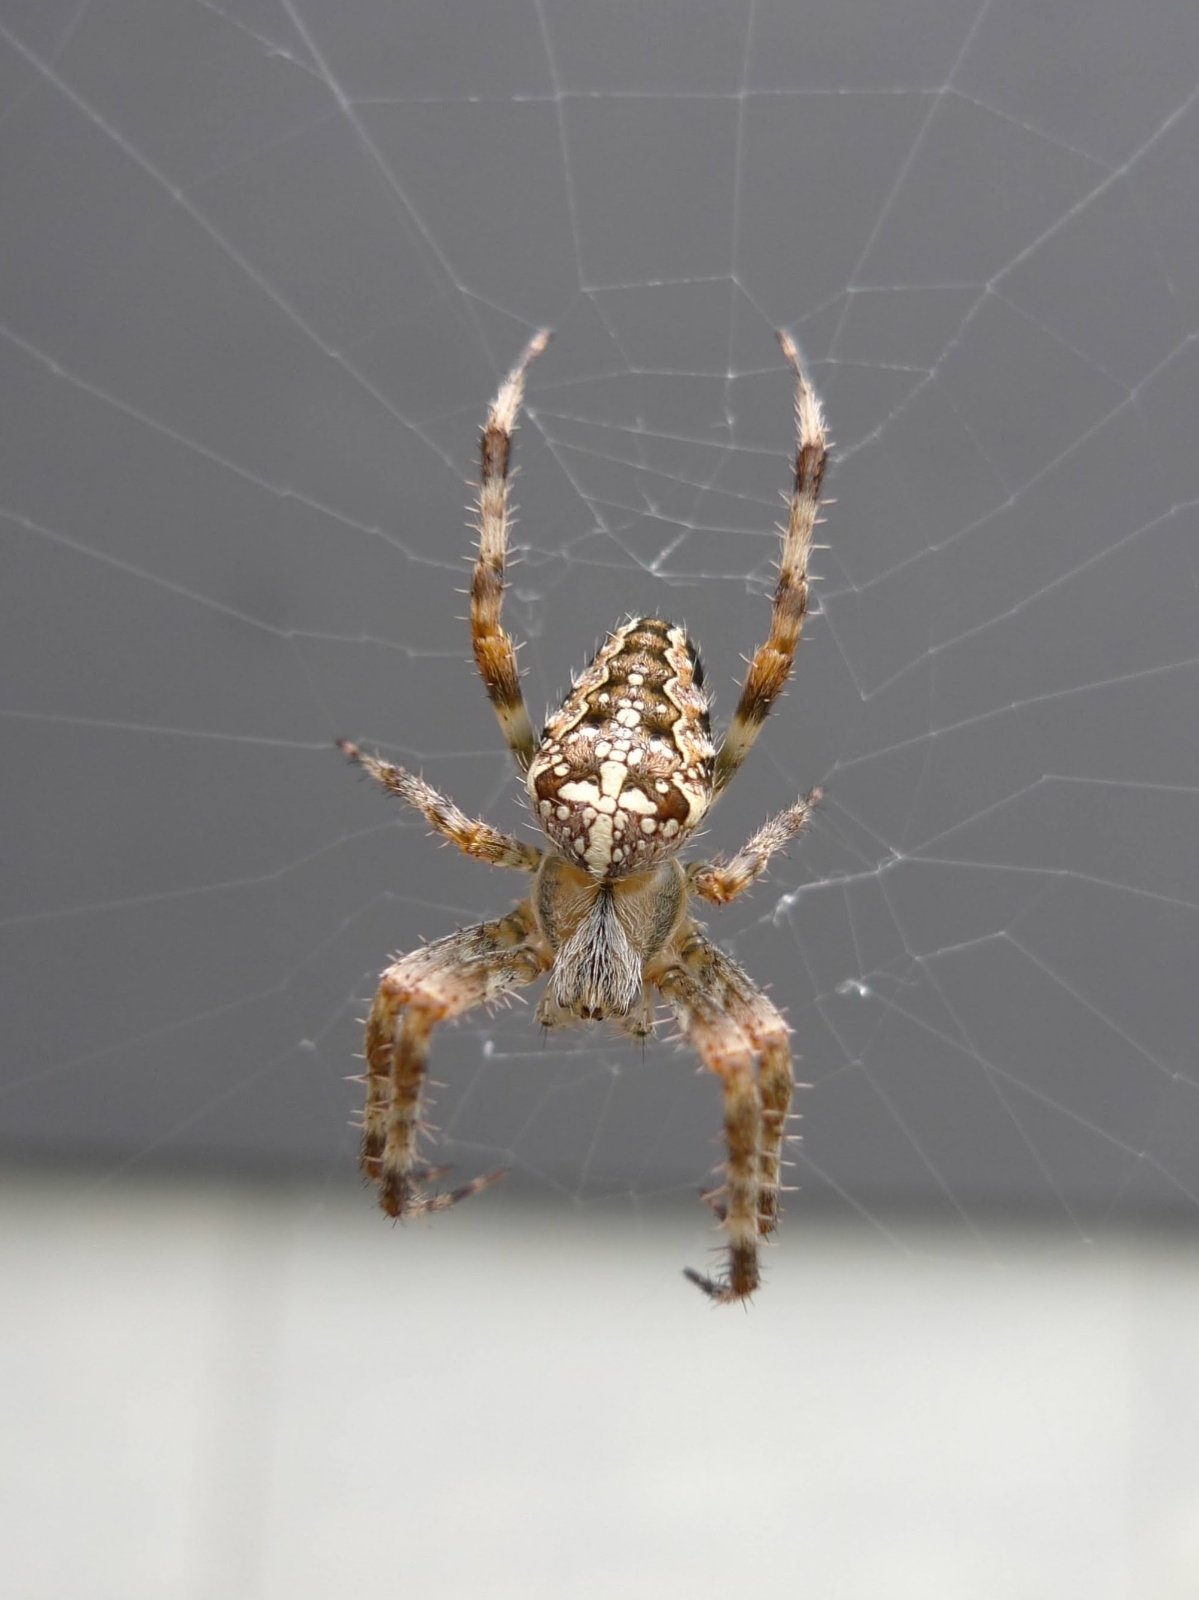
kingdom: Animalia
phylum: Arthropoda
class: Arachnida
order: Araneae
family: Araneidae
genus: Araneus
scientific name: Araneus diadematus
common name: Cross orbweaver
